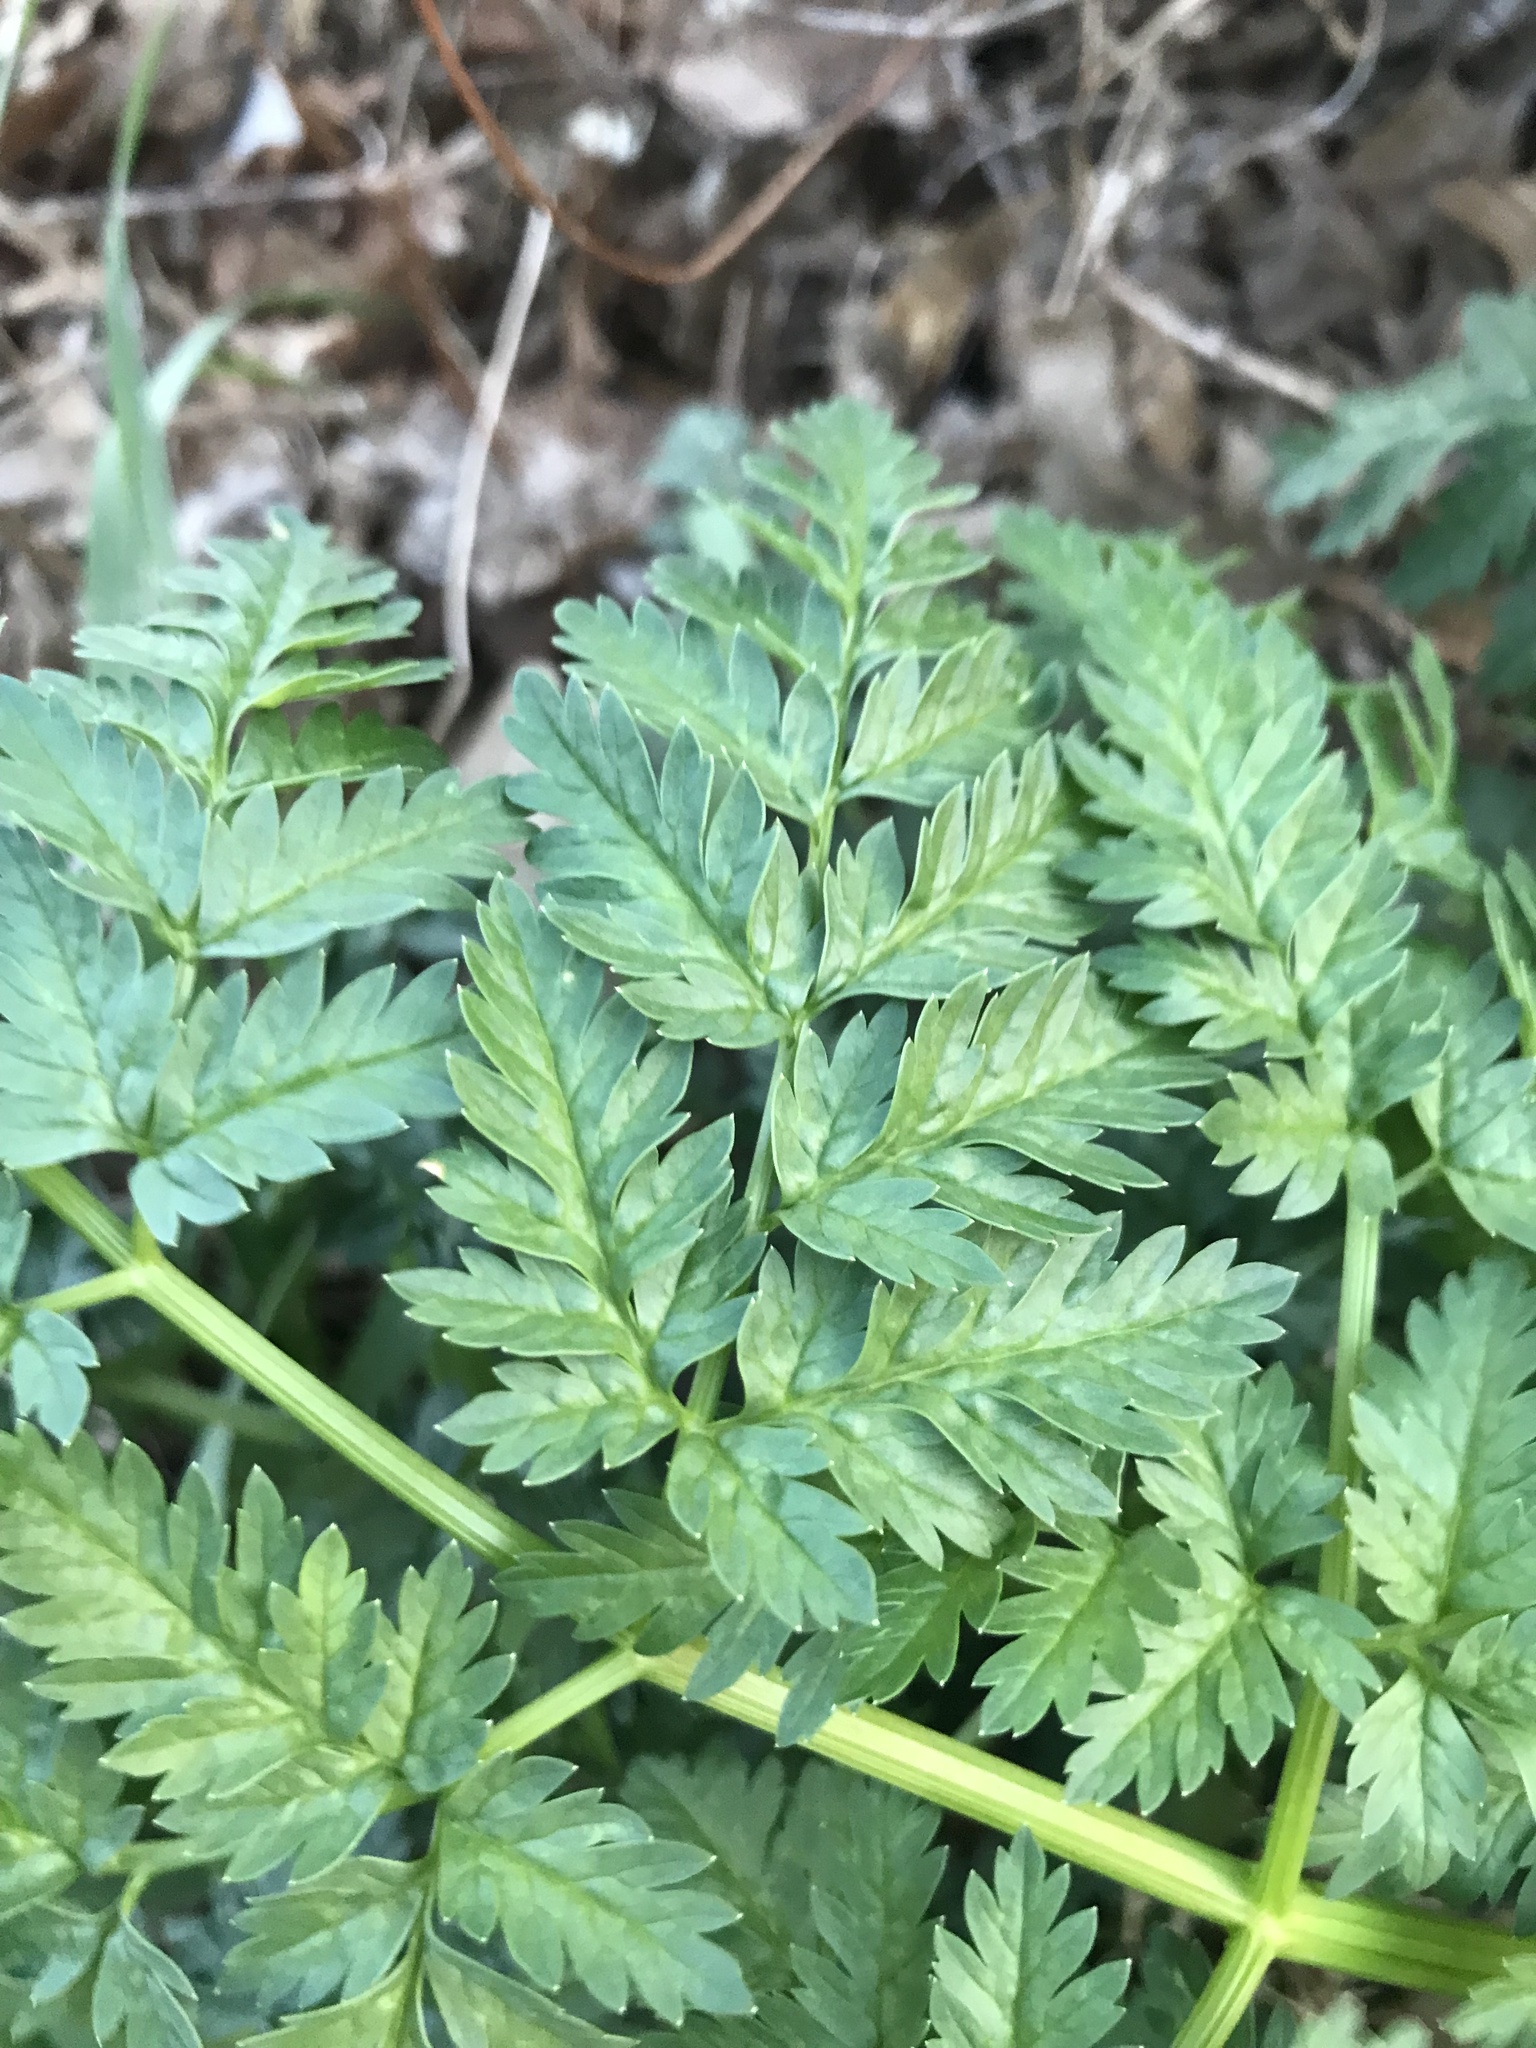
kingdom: Plantae
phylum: Tracheophyta
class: Magnoliopsida
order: Apiales
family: Apiaceae
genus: Conium
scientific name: Conium maculatum
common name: Hemlock
